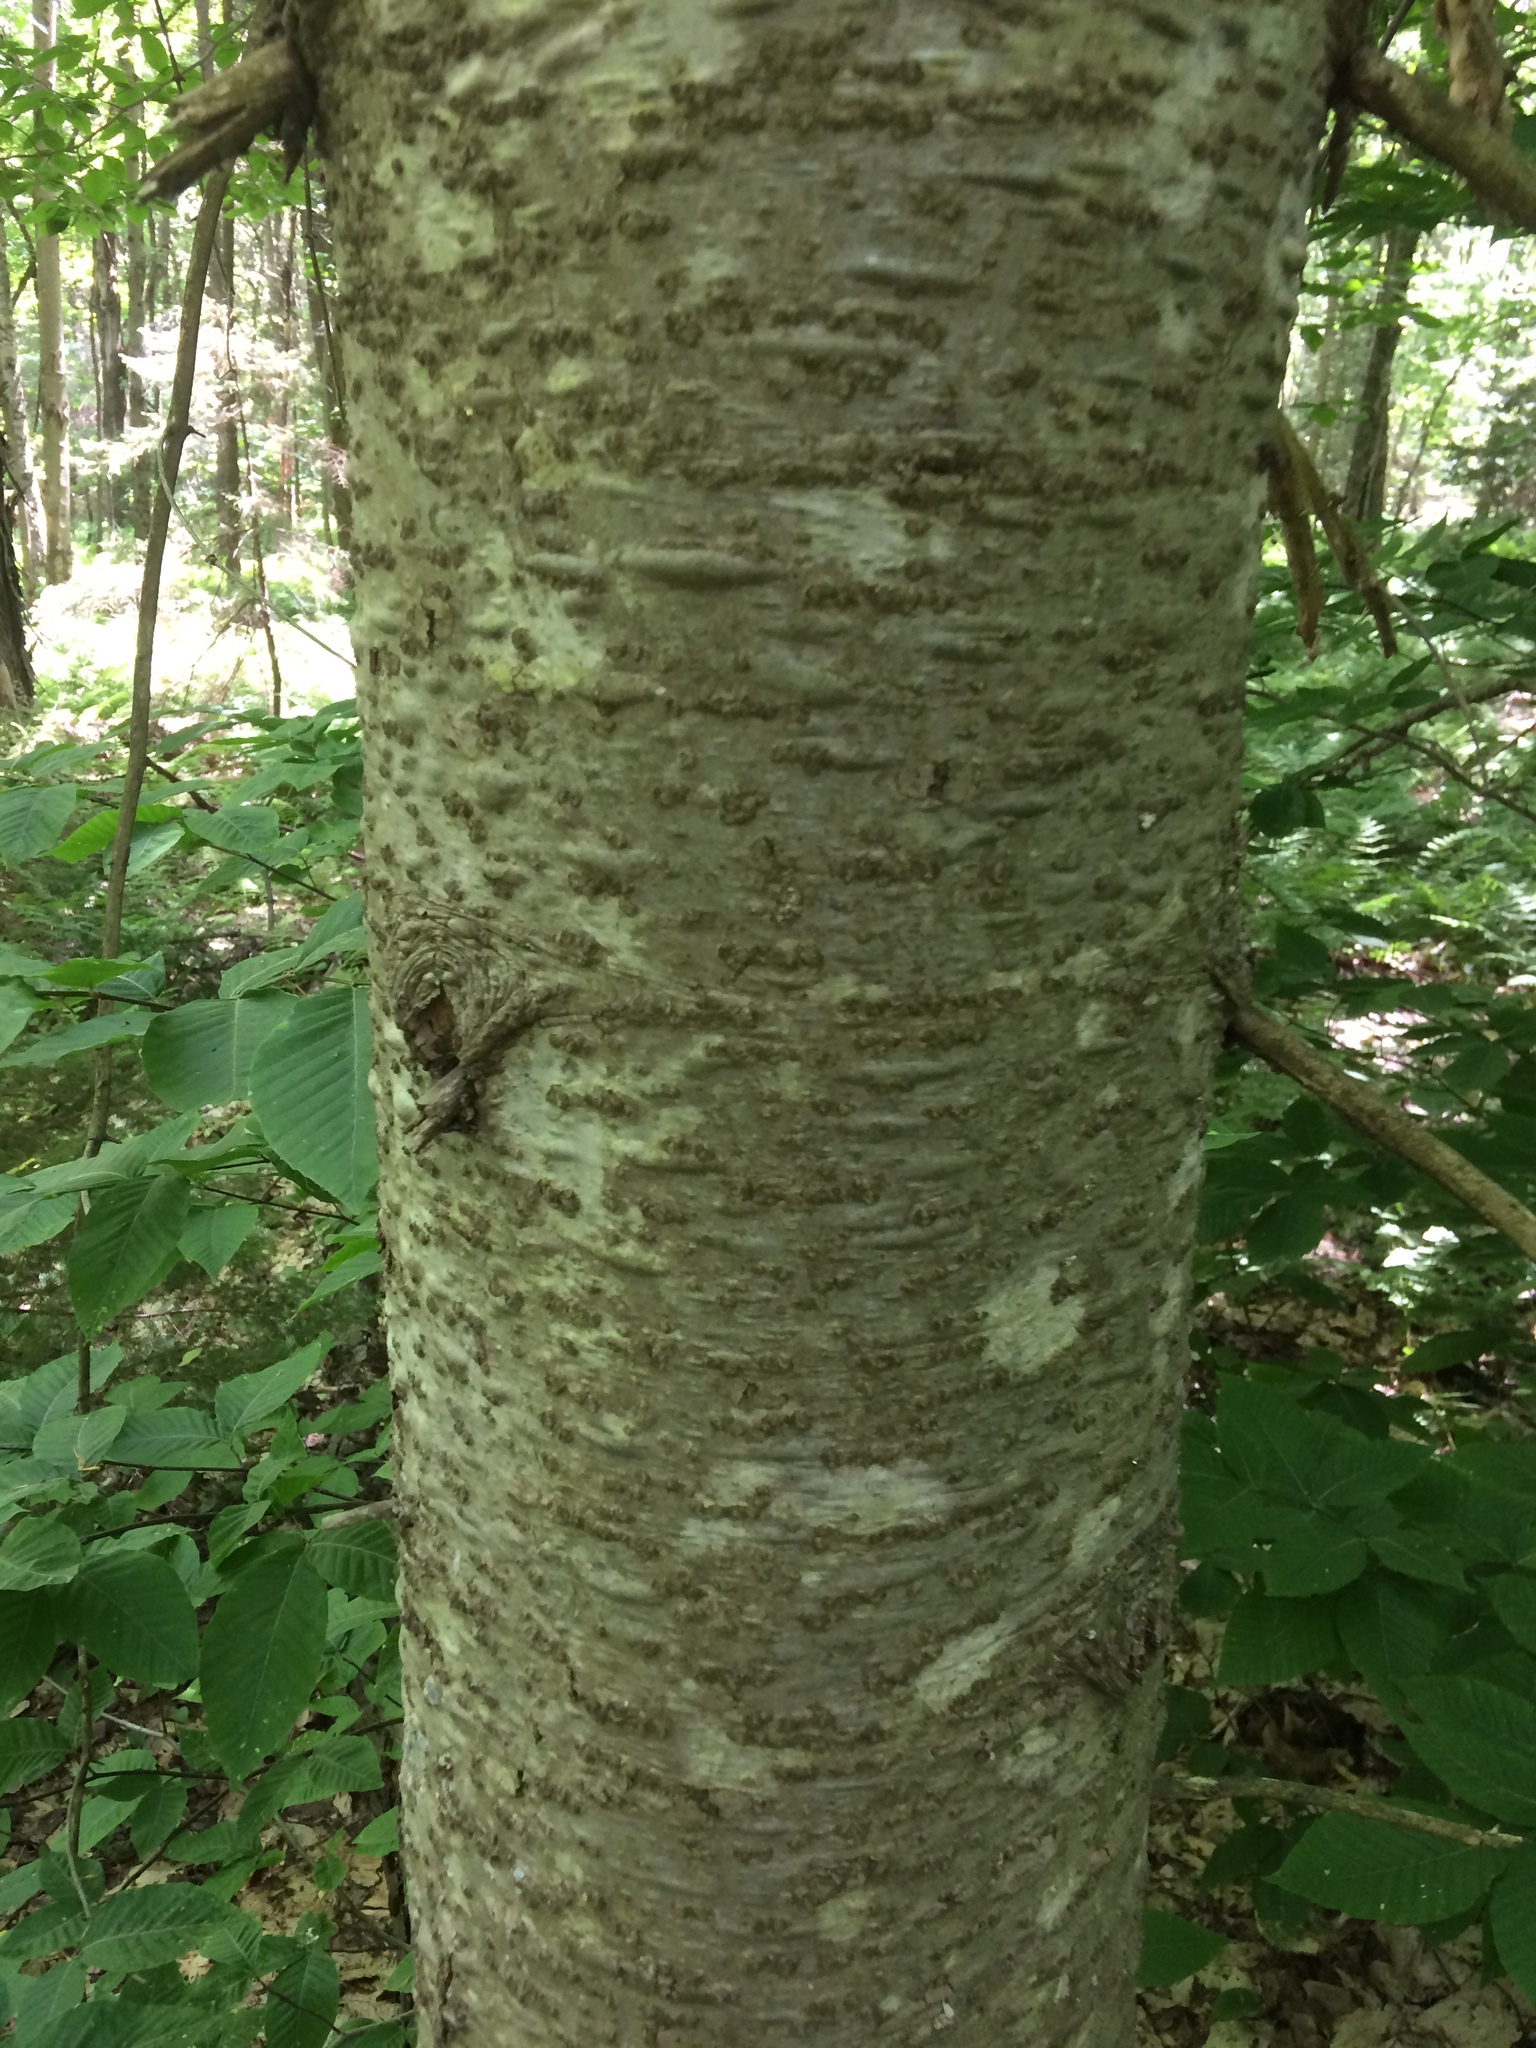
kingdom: Plantae
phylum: Tracheophyta
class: Pinopsida
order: Pinales
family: Pinaceae
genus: Abies
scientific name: Abies balsamea
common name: Balsam fir
